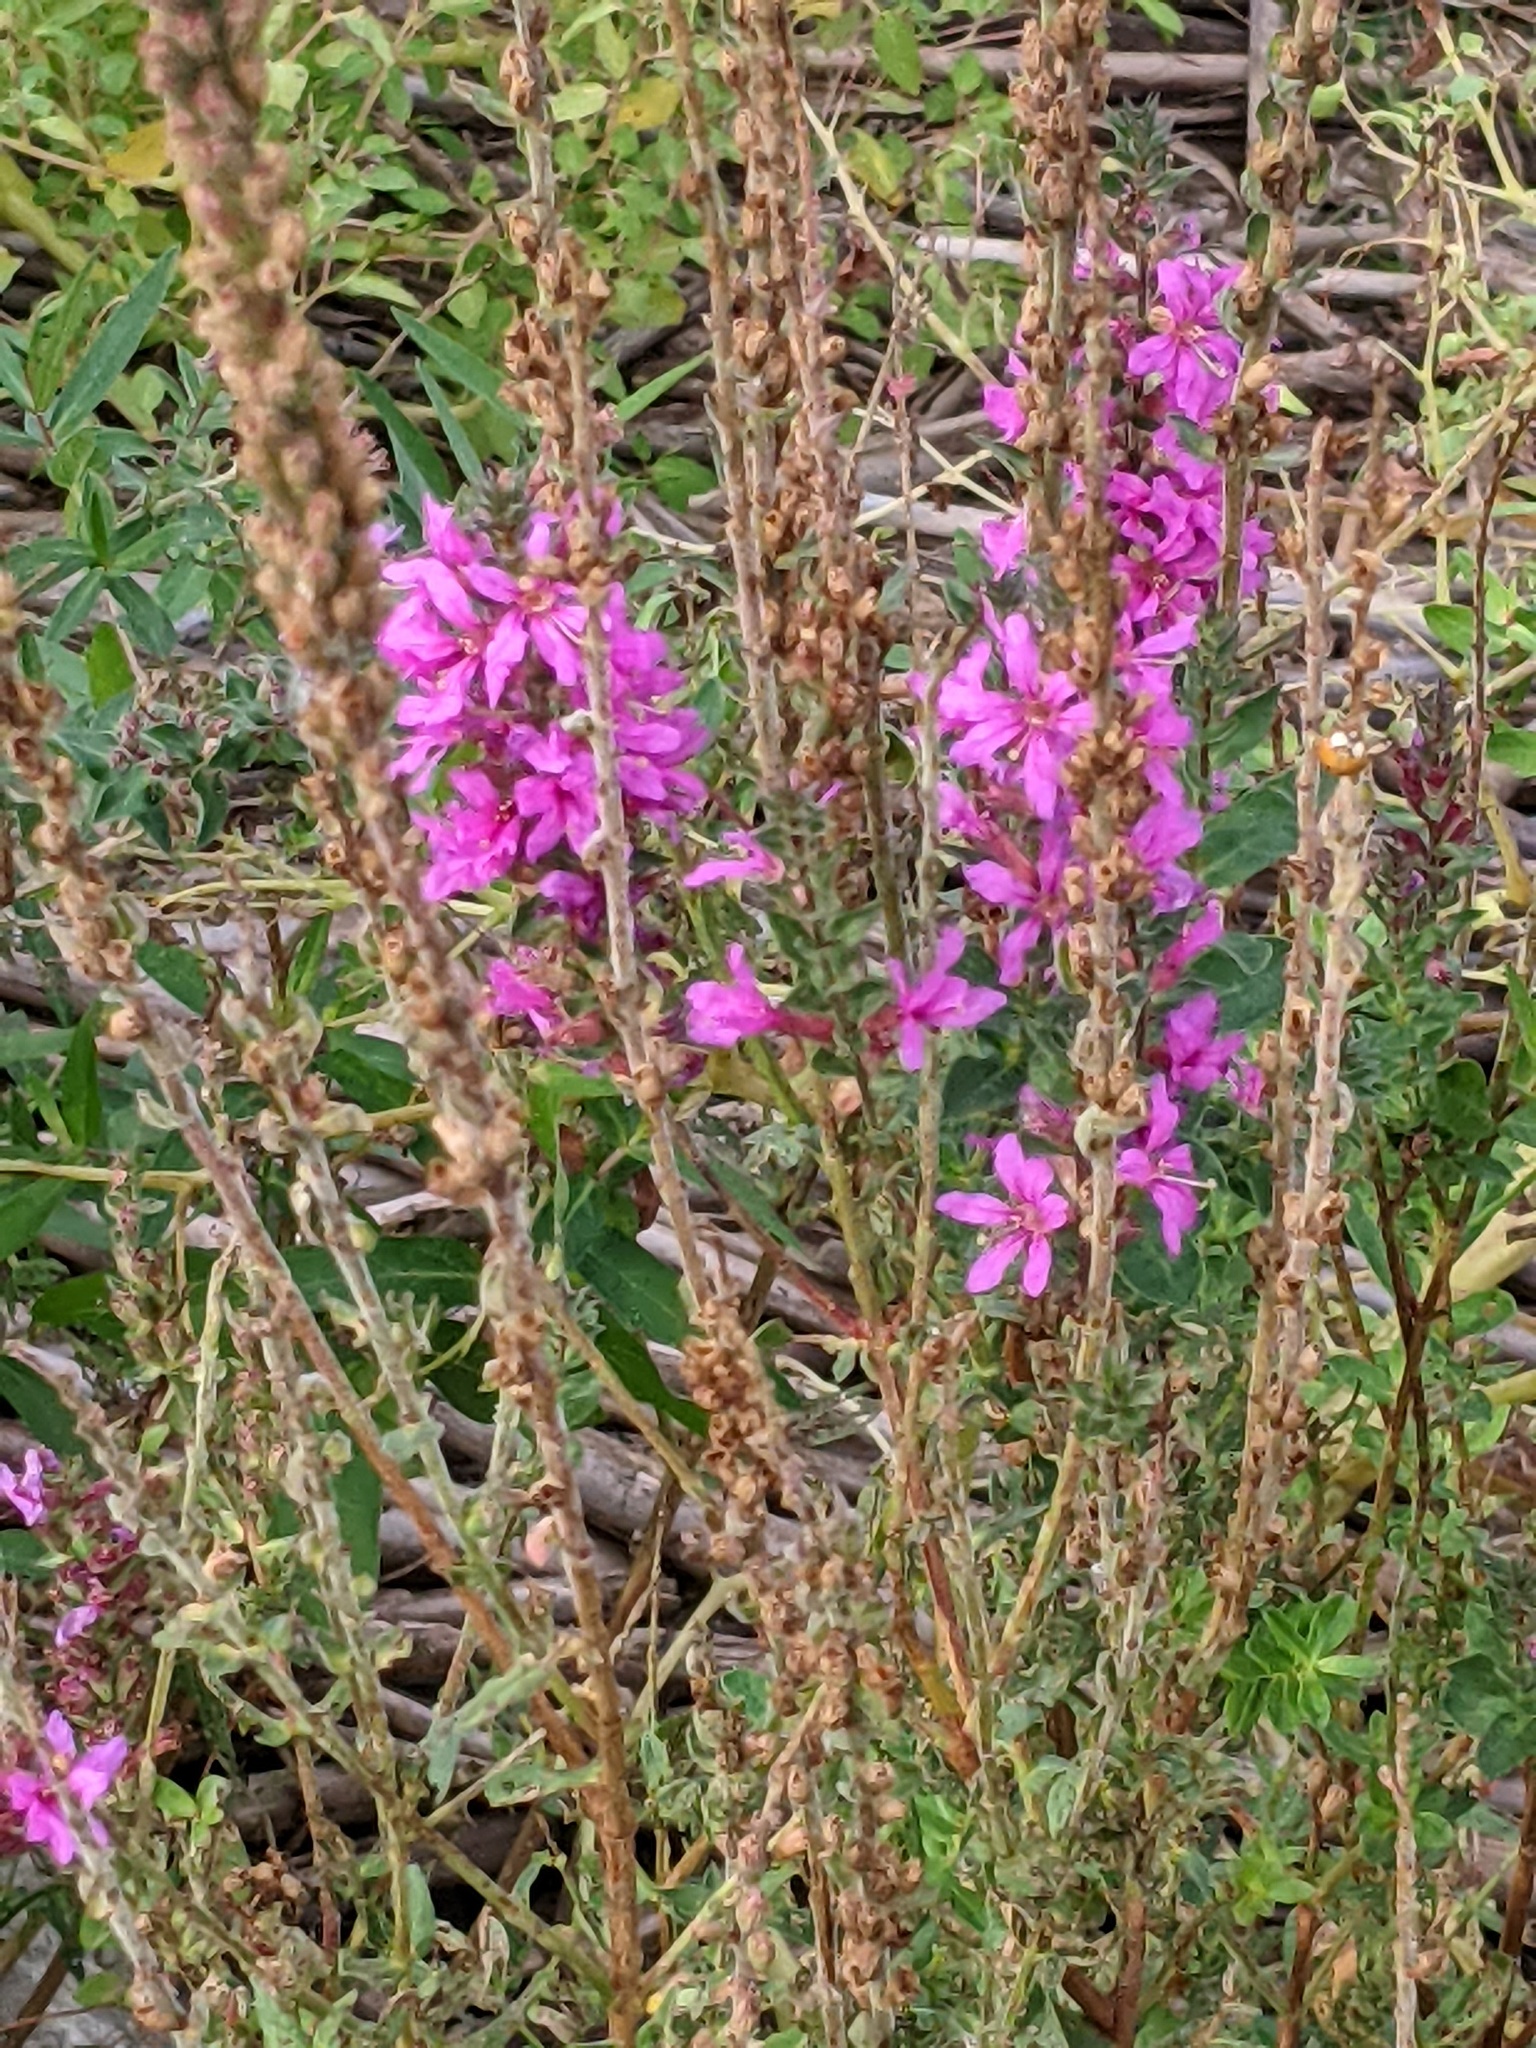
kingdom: Plantae
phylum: Tracheophyta
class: Magnoliopsida
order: Myrtales
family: Lythraceae
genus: Lythrum
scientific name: Lythrum salicaria
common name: Purple loosestrife
